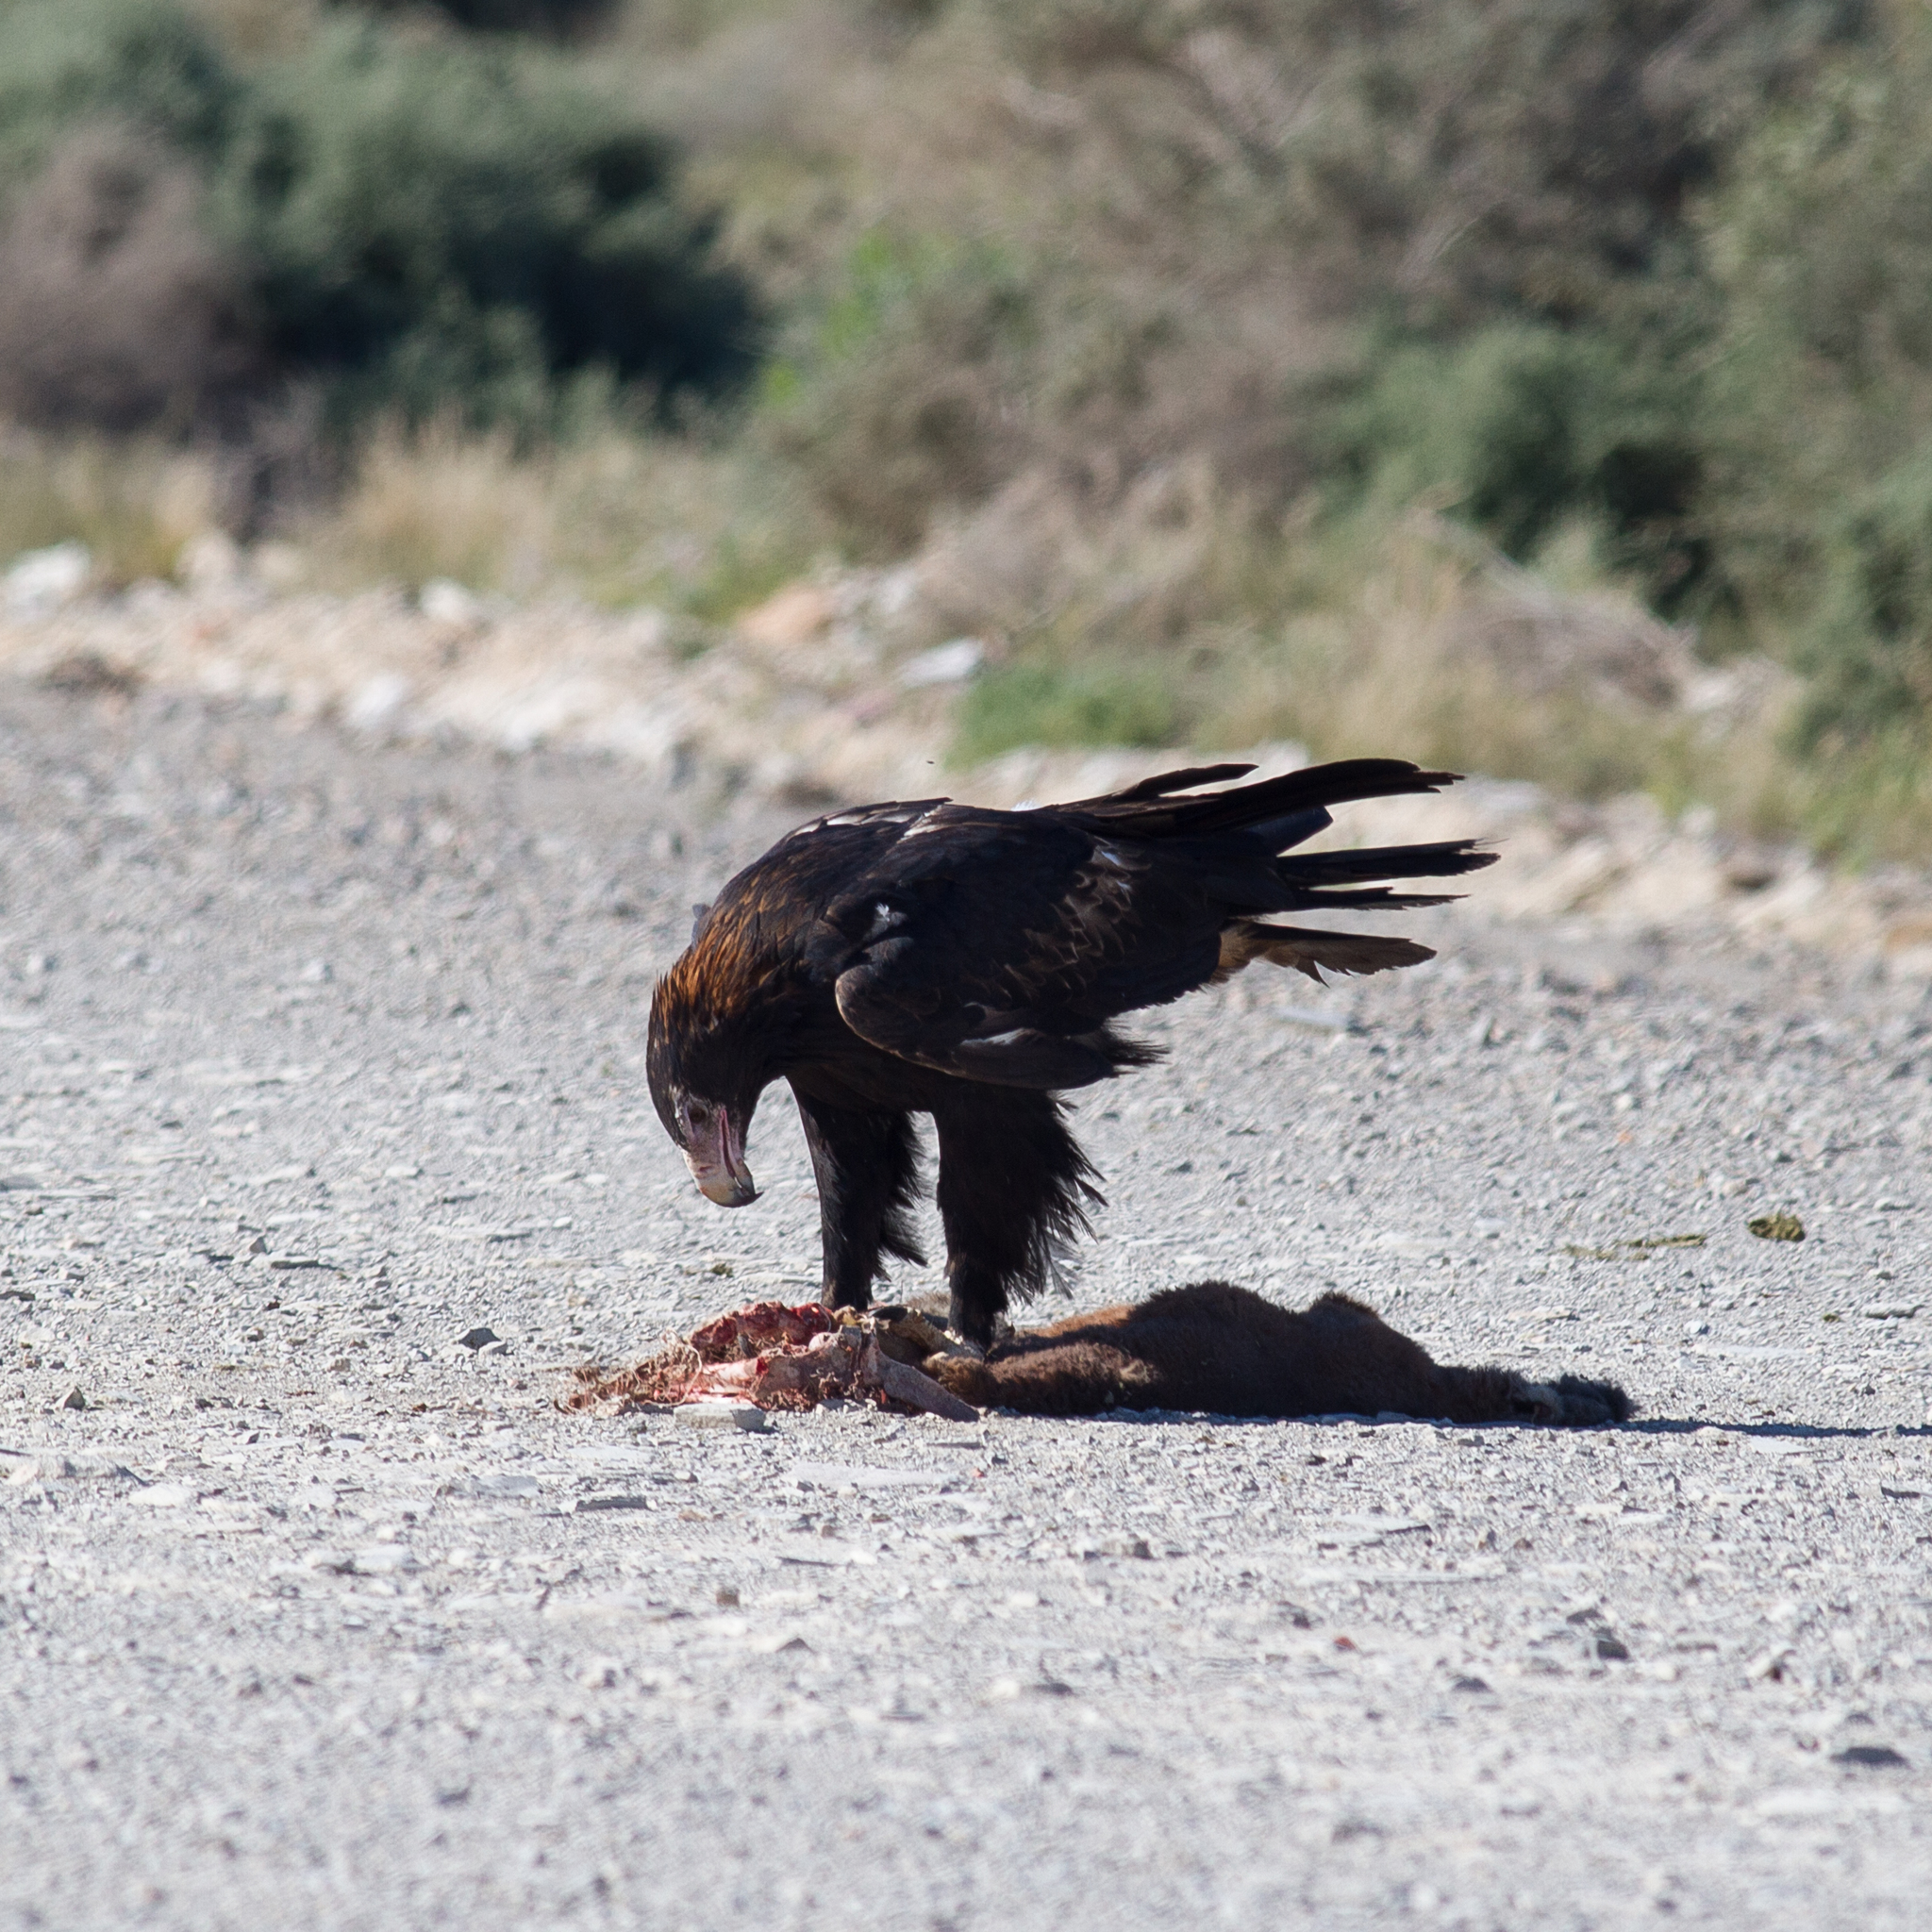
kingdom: Animalia
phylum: Chordata
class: Aves
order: Accipitriformes
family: Accipitridae
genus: Aquila
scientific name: Aquila audax
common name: Wedge-tailed eagle
